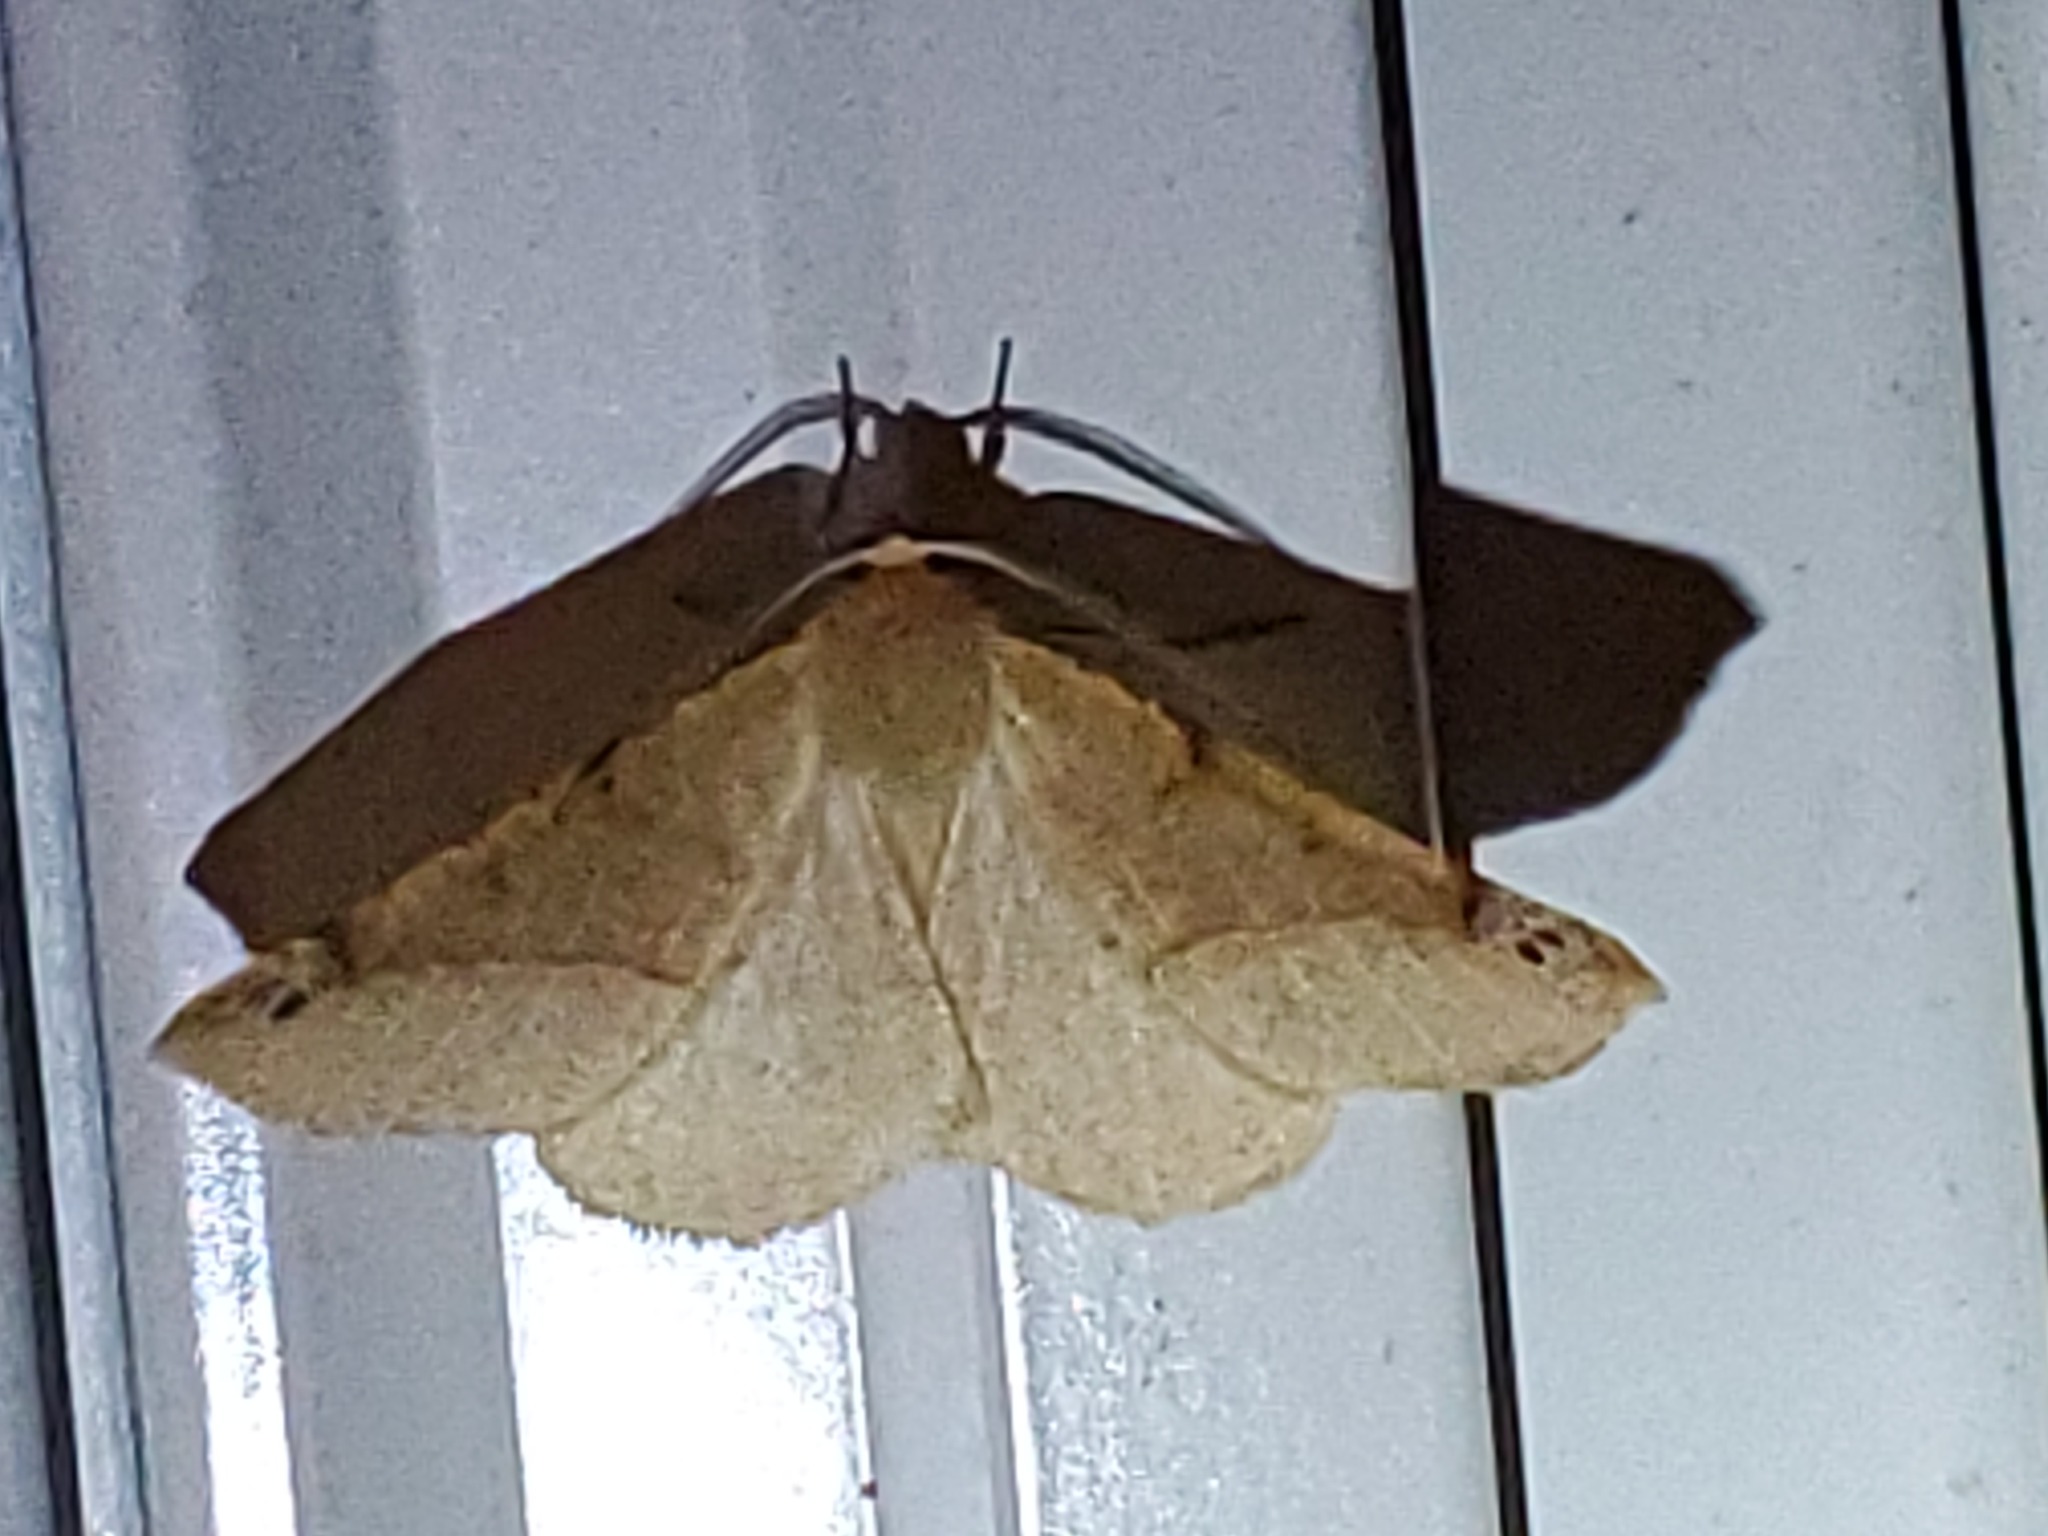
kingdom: Animalia
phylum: Arthropoda
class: Insecta
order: Lepidoptera
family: Geometridae
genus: Synaxis
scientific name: Synaxis triangulata
